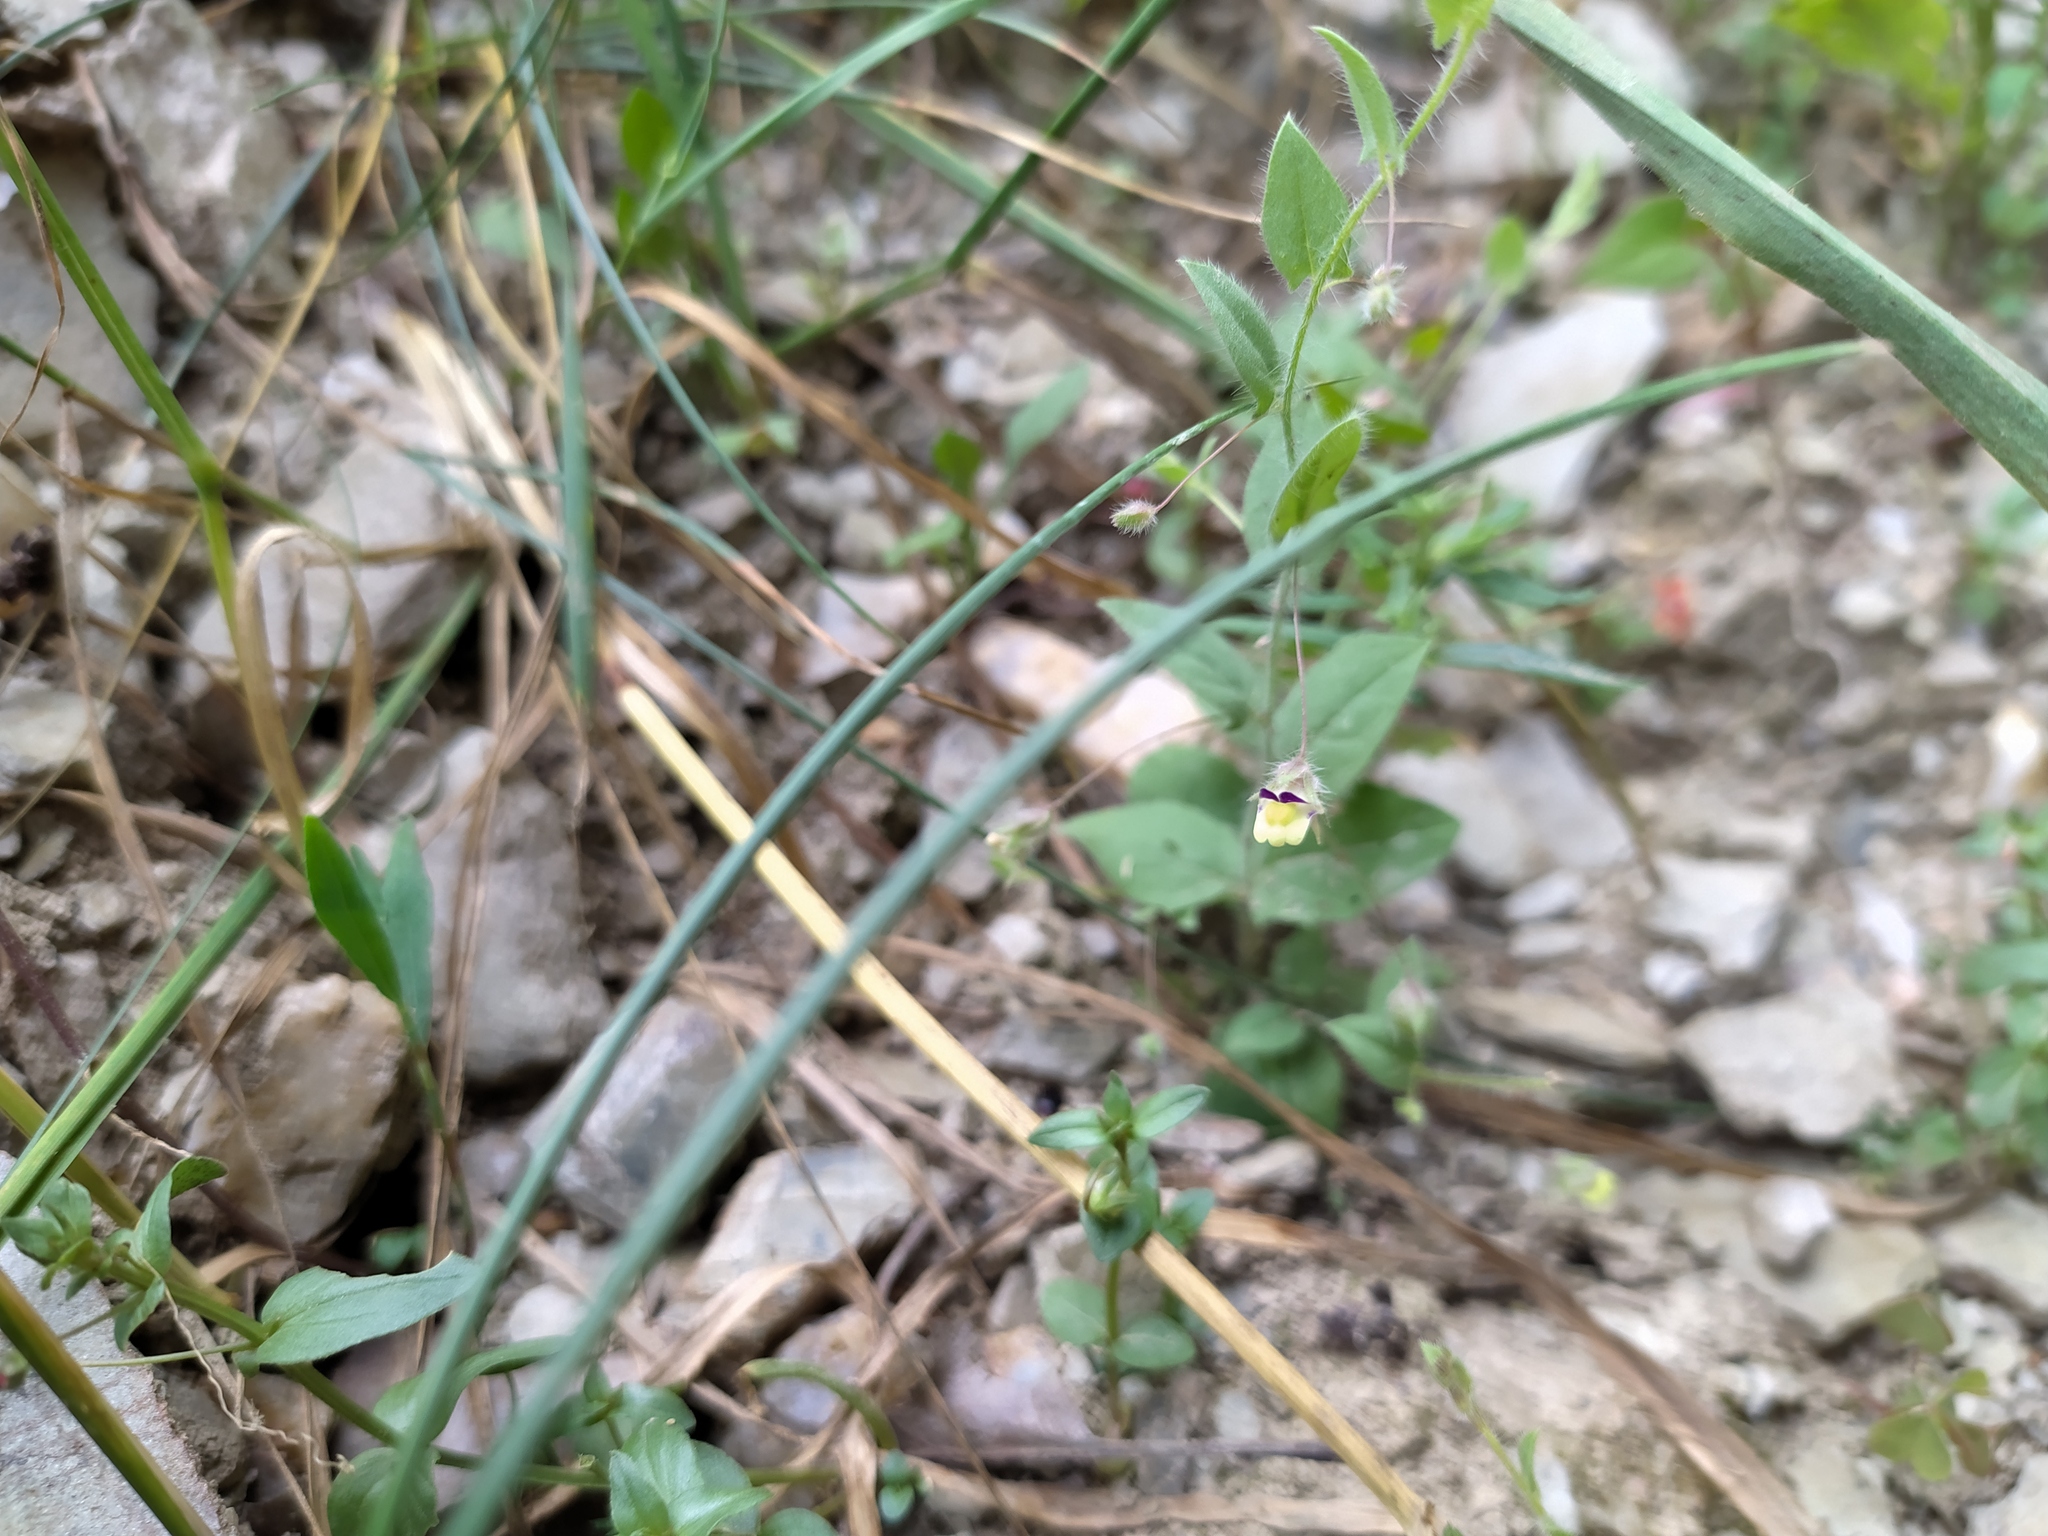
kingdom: Plantae
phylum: Tracheophyta
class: Magnoliopsida
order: Lamiales
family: Plantaginaceae
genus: Kickxia
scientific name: Kickxia elatine
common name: Sharp-leaved fluellen
